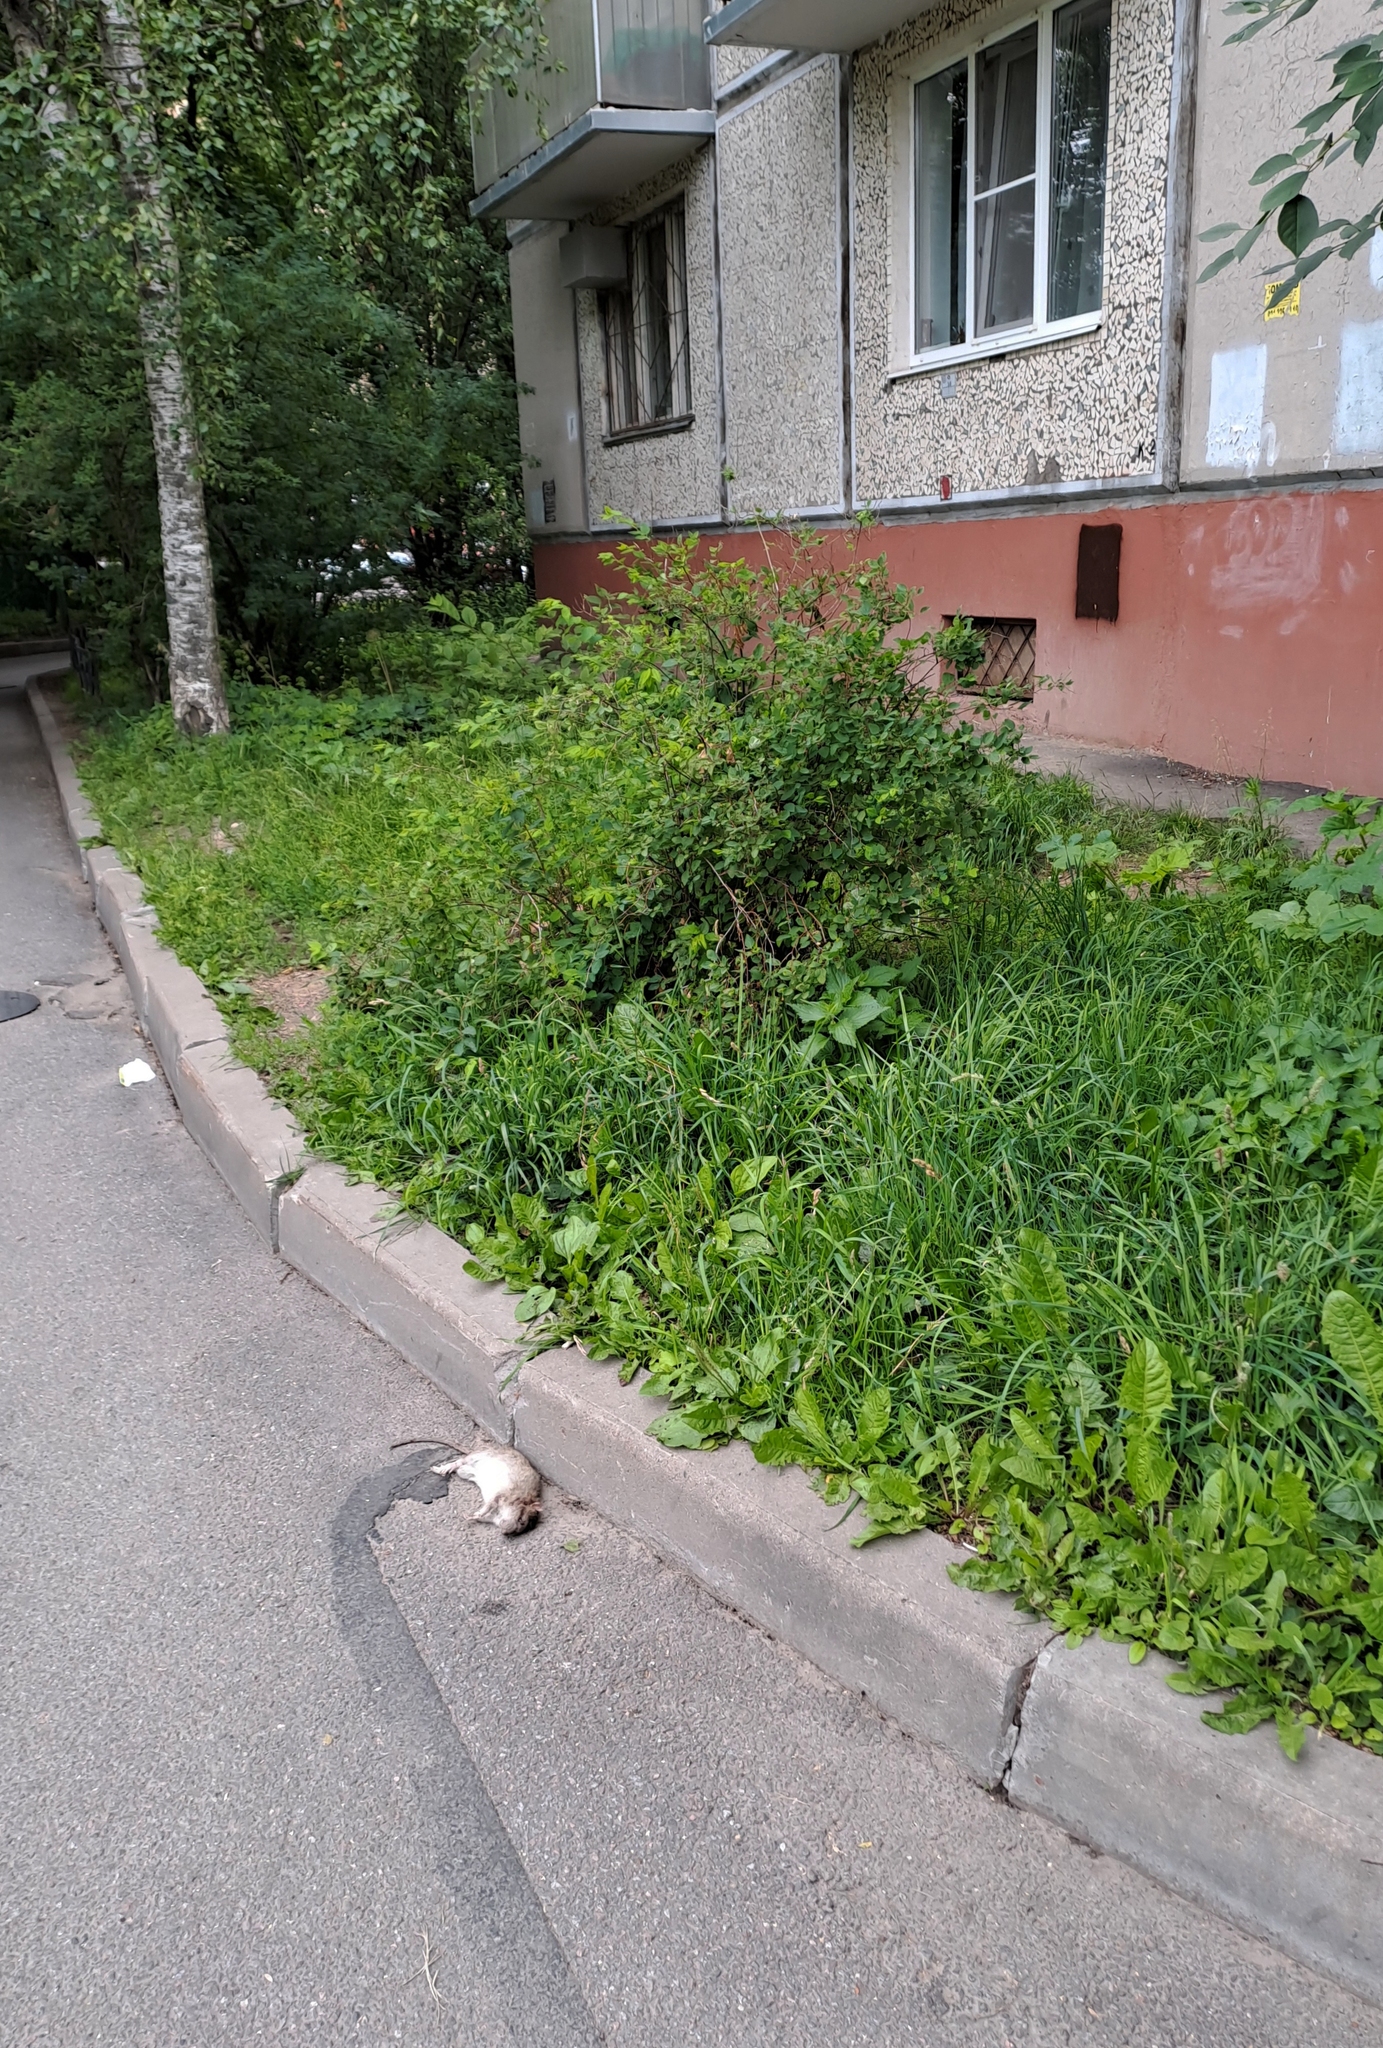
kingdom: Animalia
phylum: Chordata
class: Mammalia
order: Rodentia
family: Muridae
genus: Rattus
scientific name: Rattus norvegicus
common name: Brown rat
